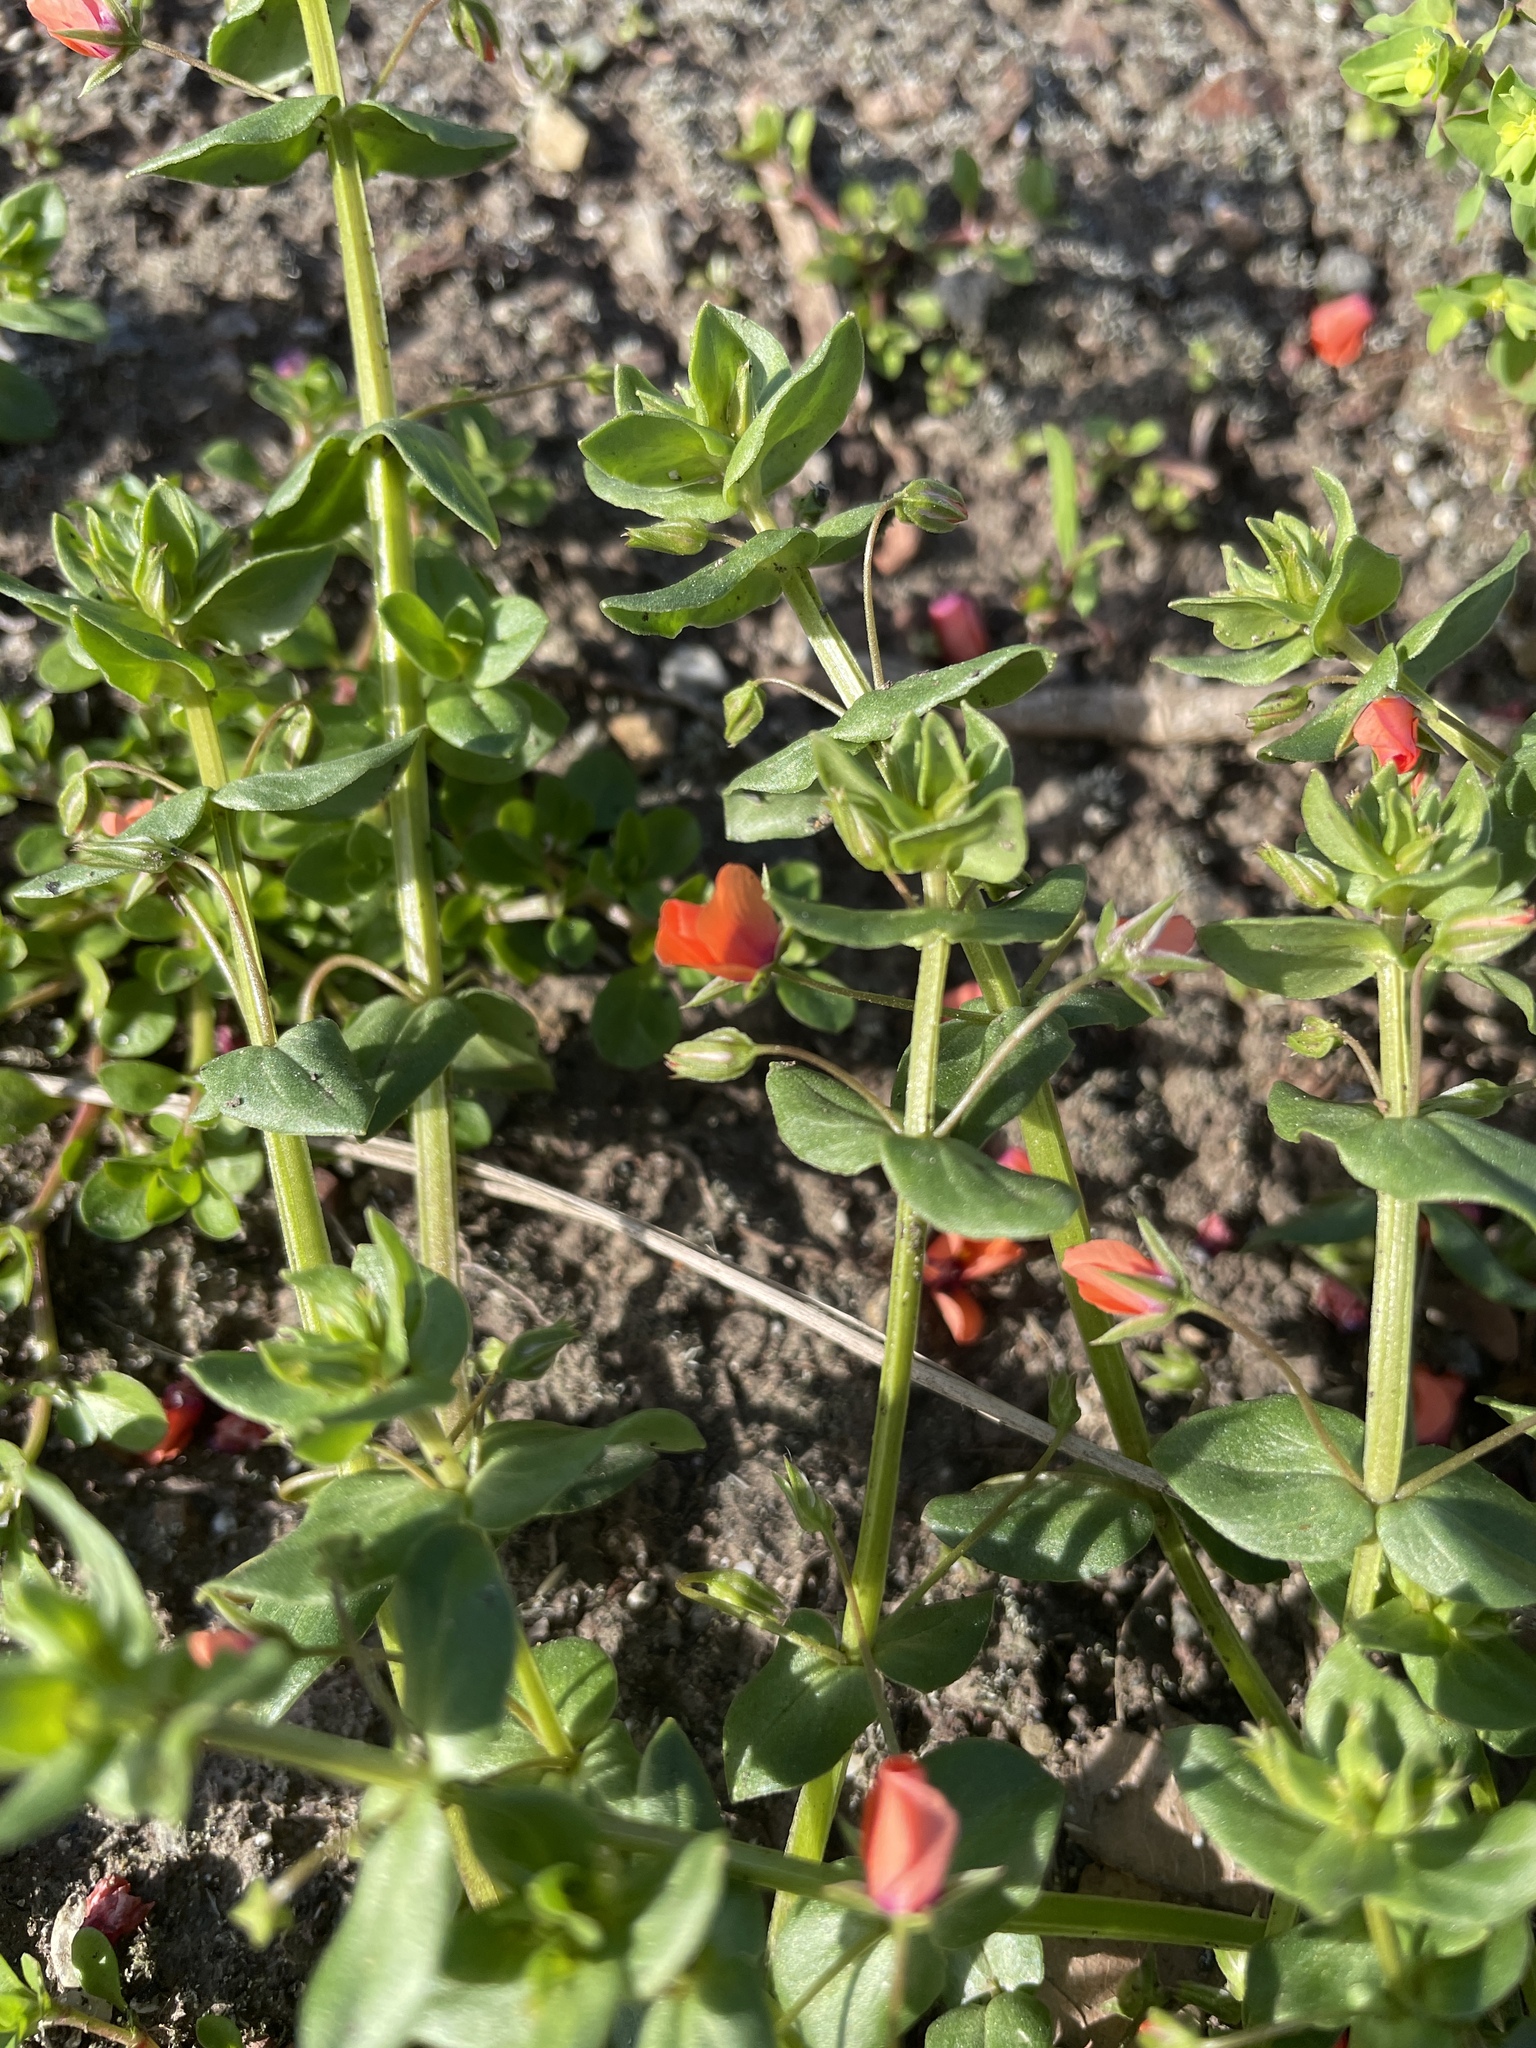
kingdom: Plantae
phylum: Tracheophyta
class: Magnoliopsida
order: Ericales
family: Primulaceae
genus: Lysimachia
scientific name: Lysimachia arvensis
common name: Scarlet pimpernel
